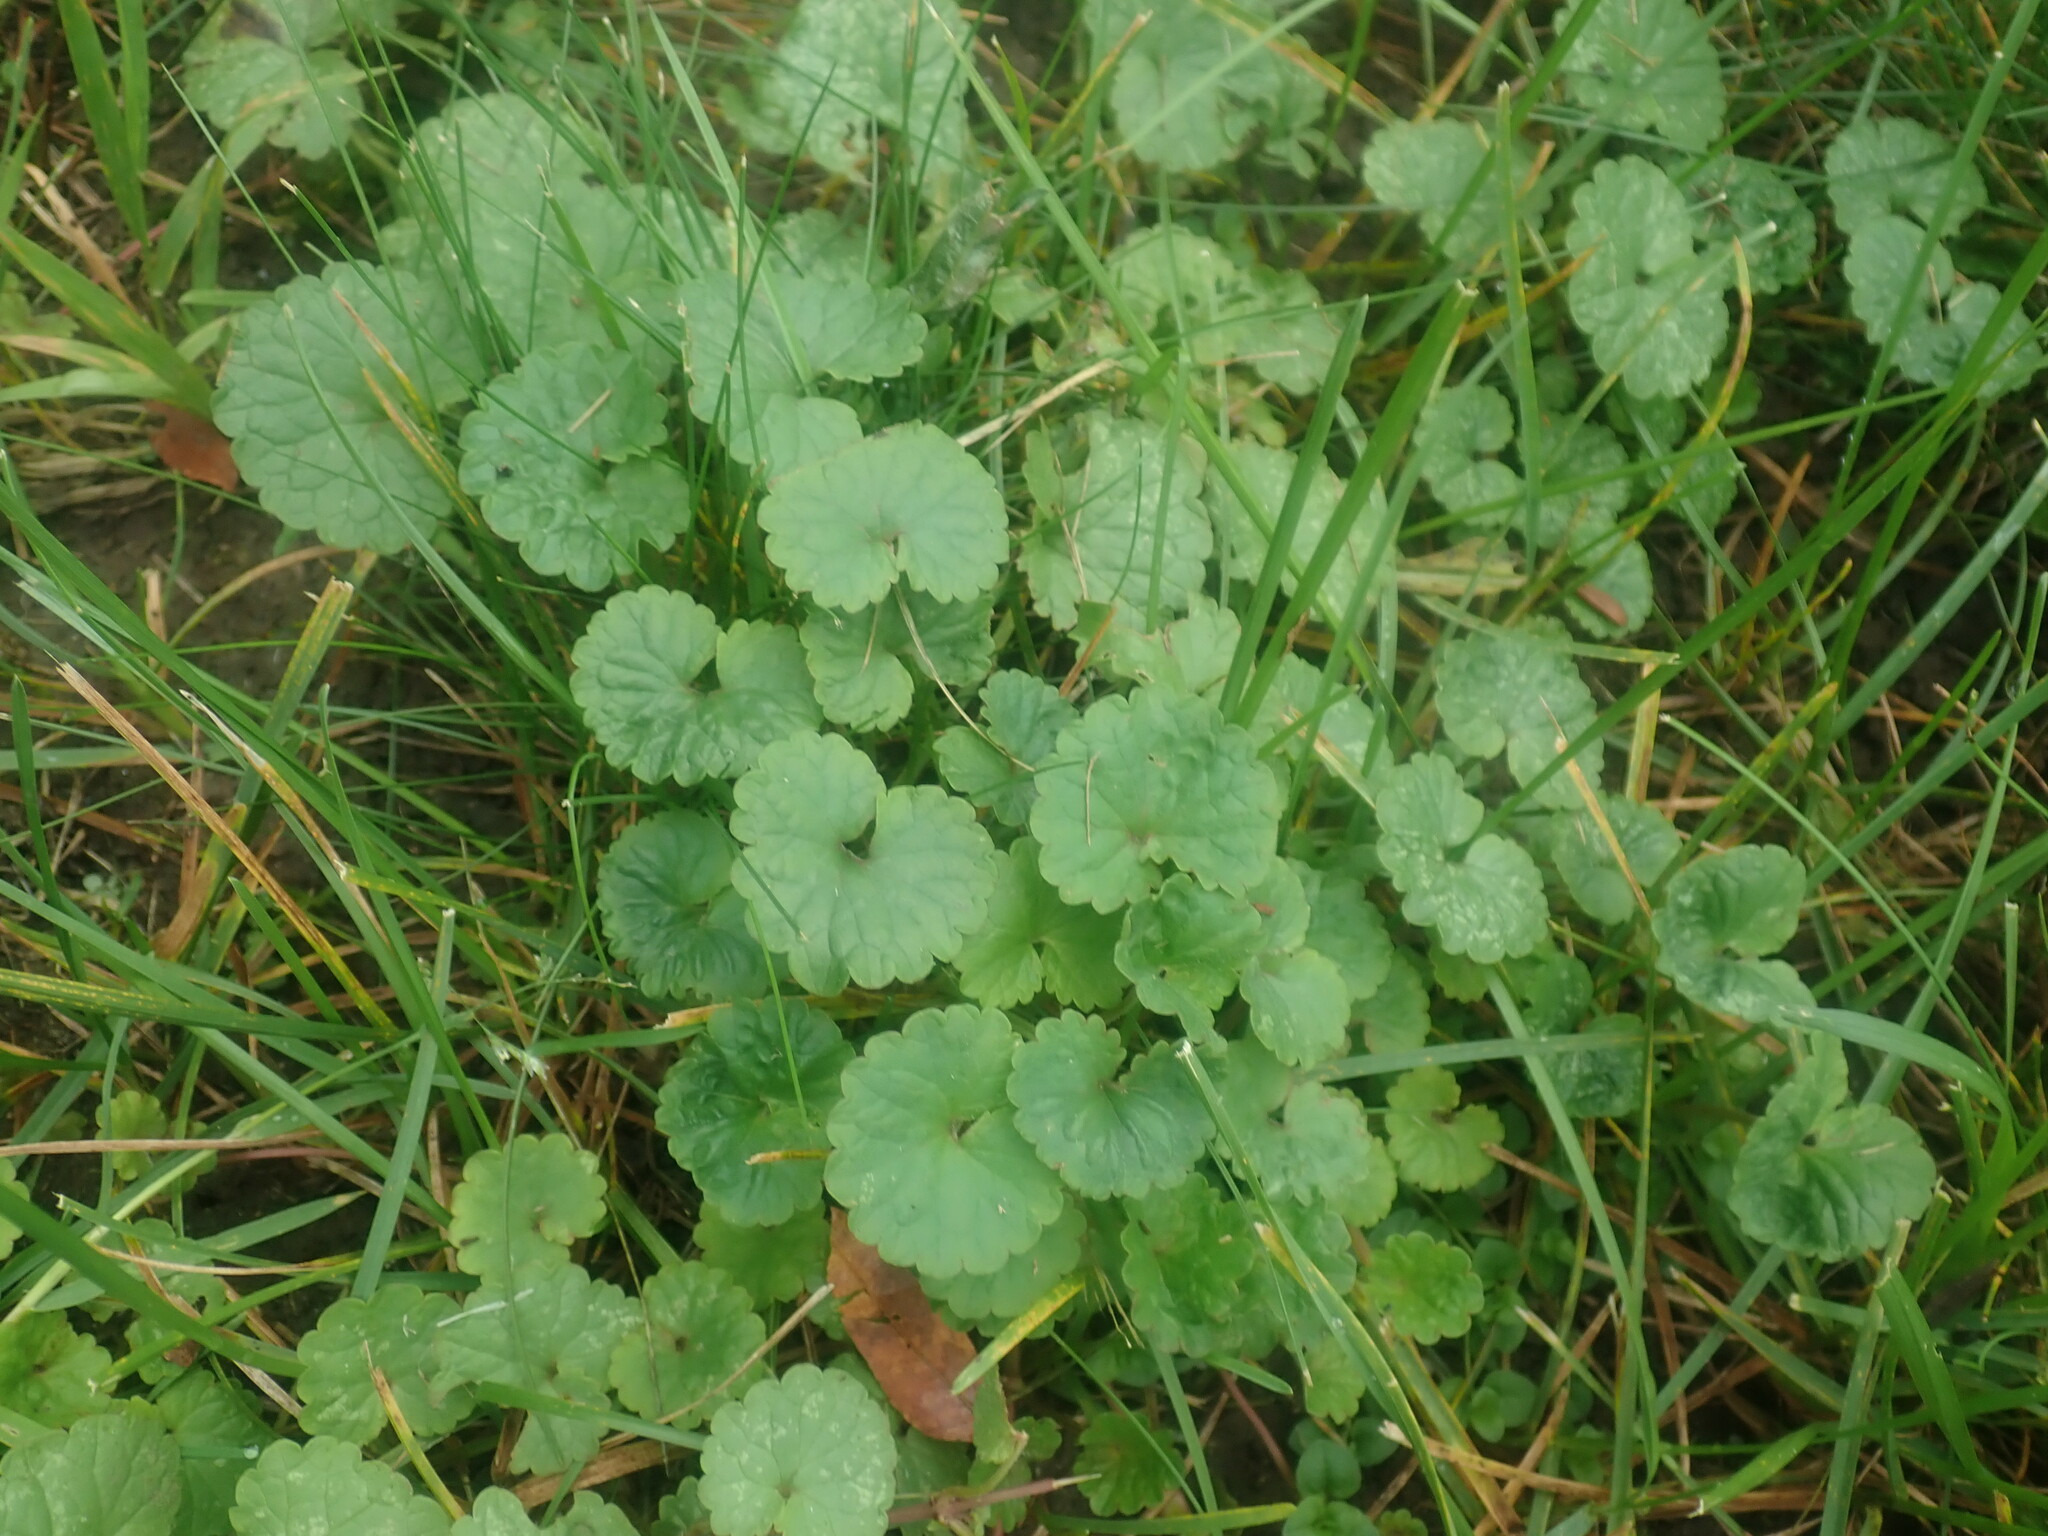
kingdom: Plantae
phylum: Tracheophyta
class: Magnoliopsida
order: Lamiales
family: Lamiaceae
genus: Glechoma
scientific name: Glechoma hederacea
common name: Ground ivy
